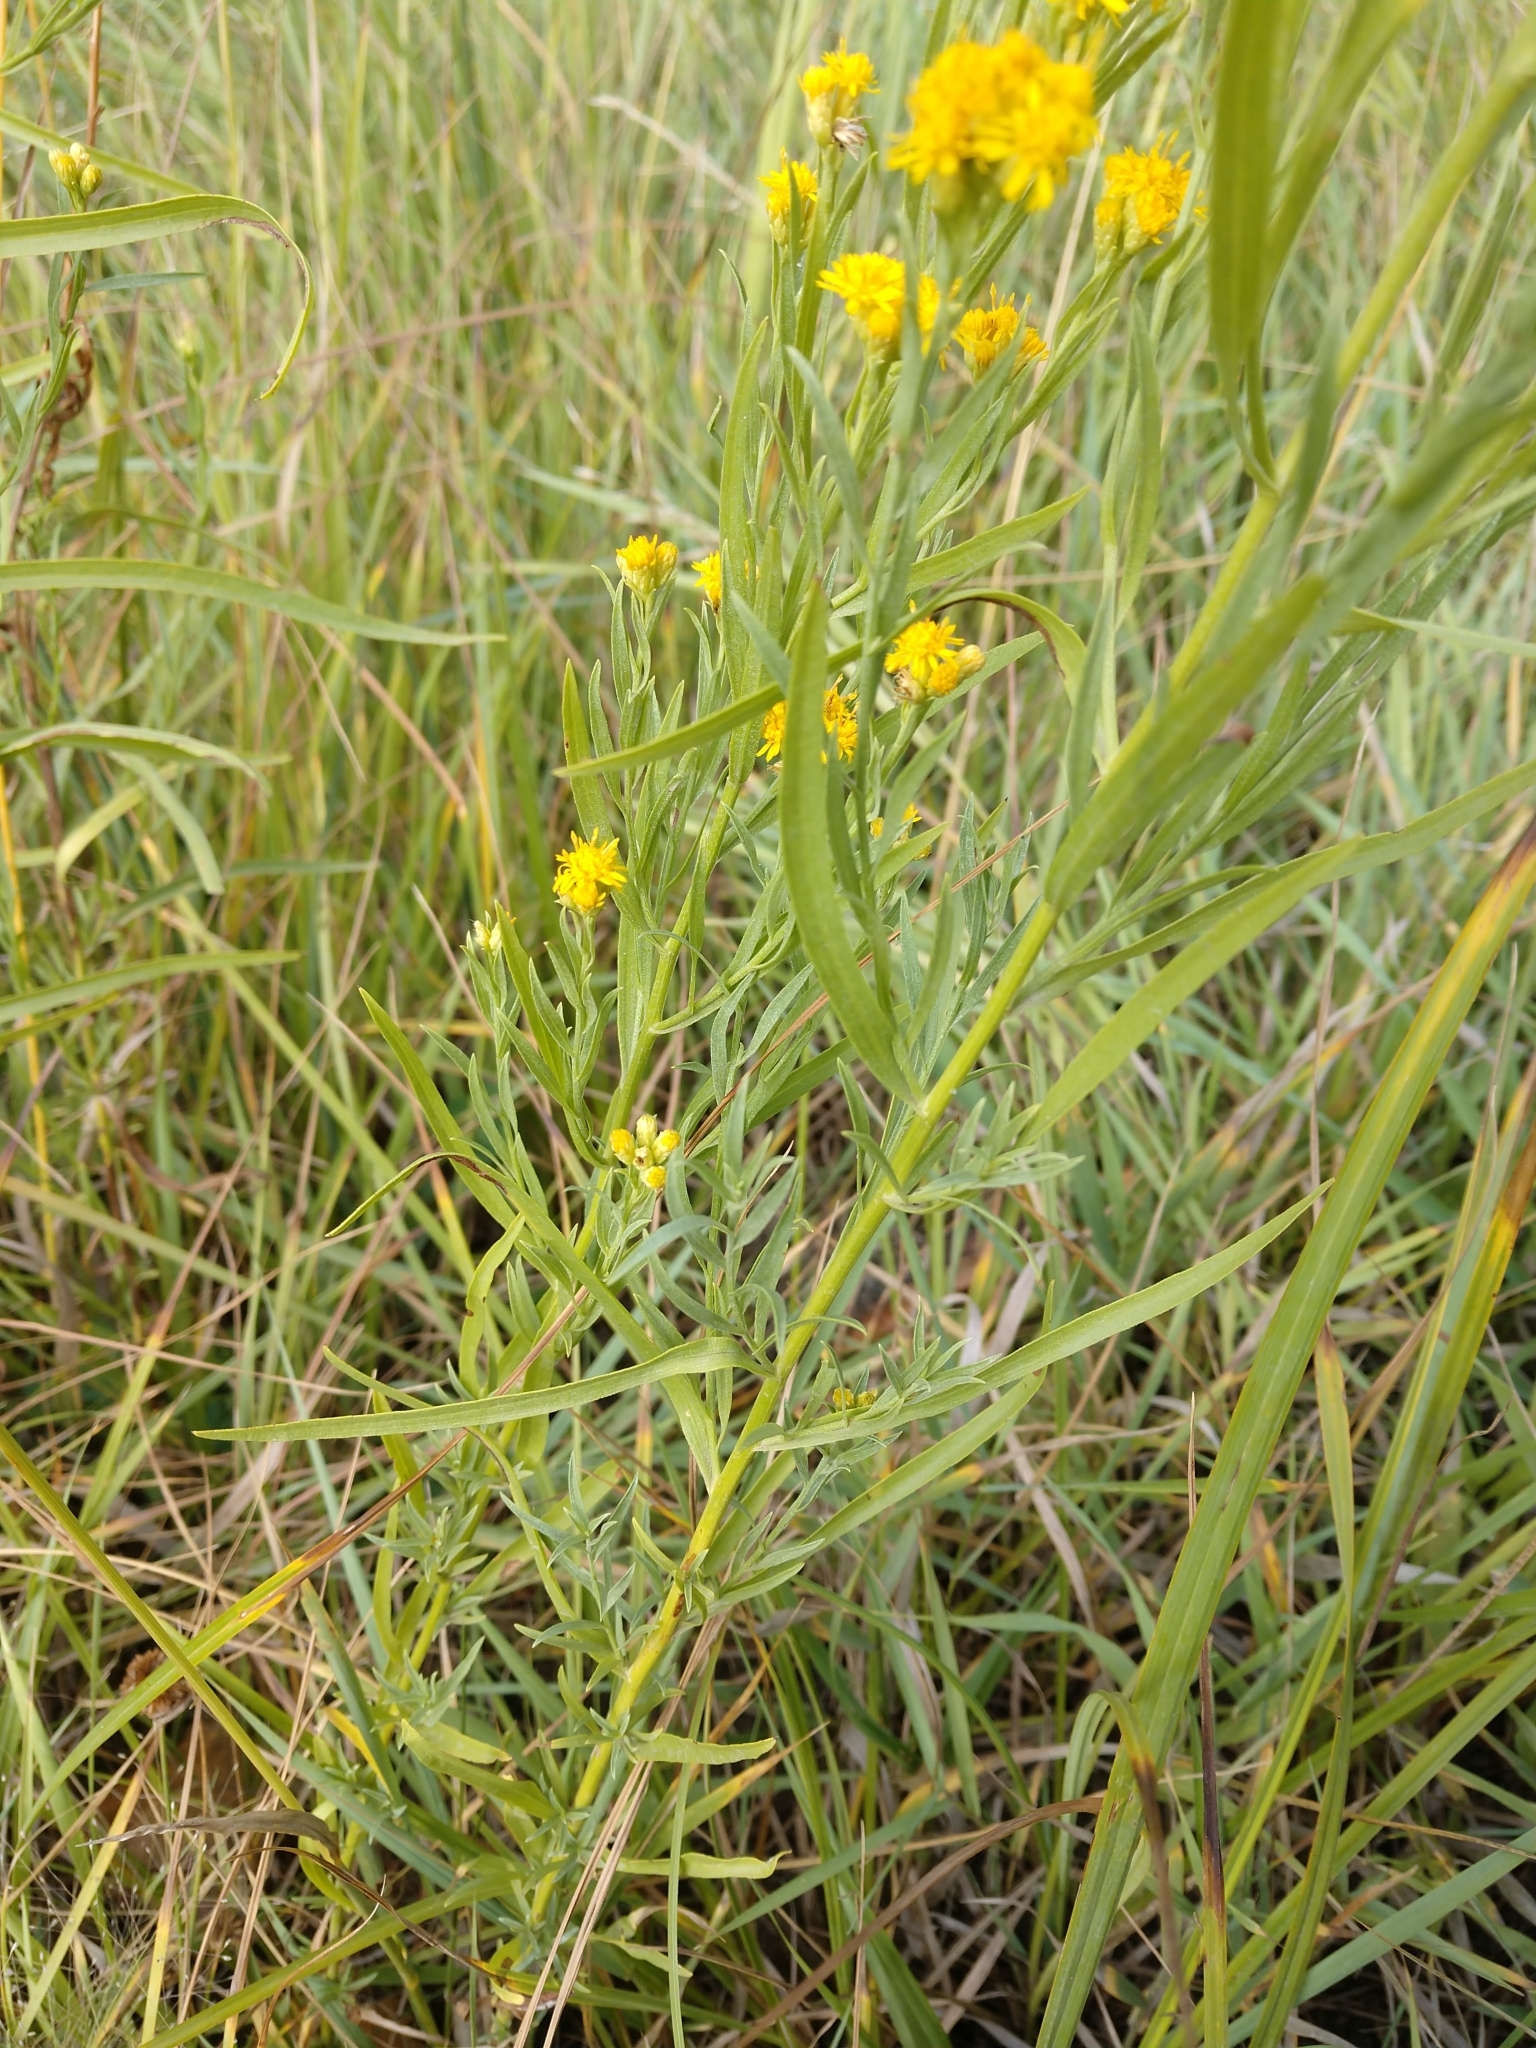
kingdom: Plantae
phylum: Tracheophyta
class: Magnoliopsida
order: Asterales
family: Asteraceae
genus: Euthamia
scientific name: Euthamia occidentalis
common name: Western goldentop
